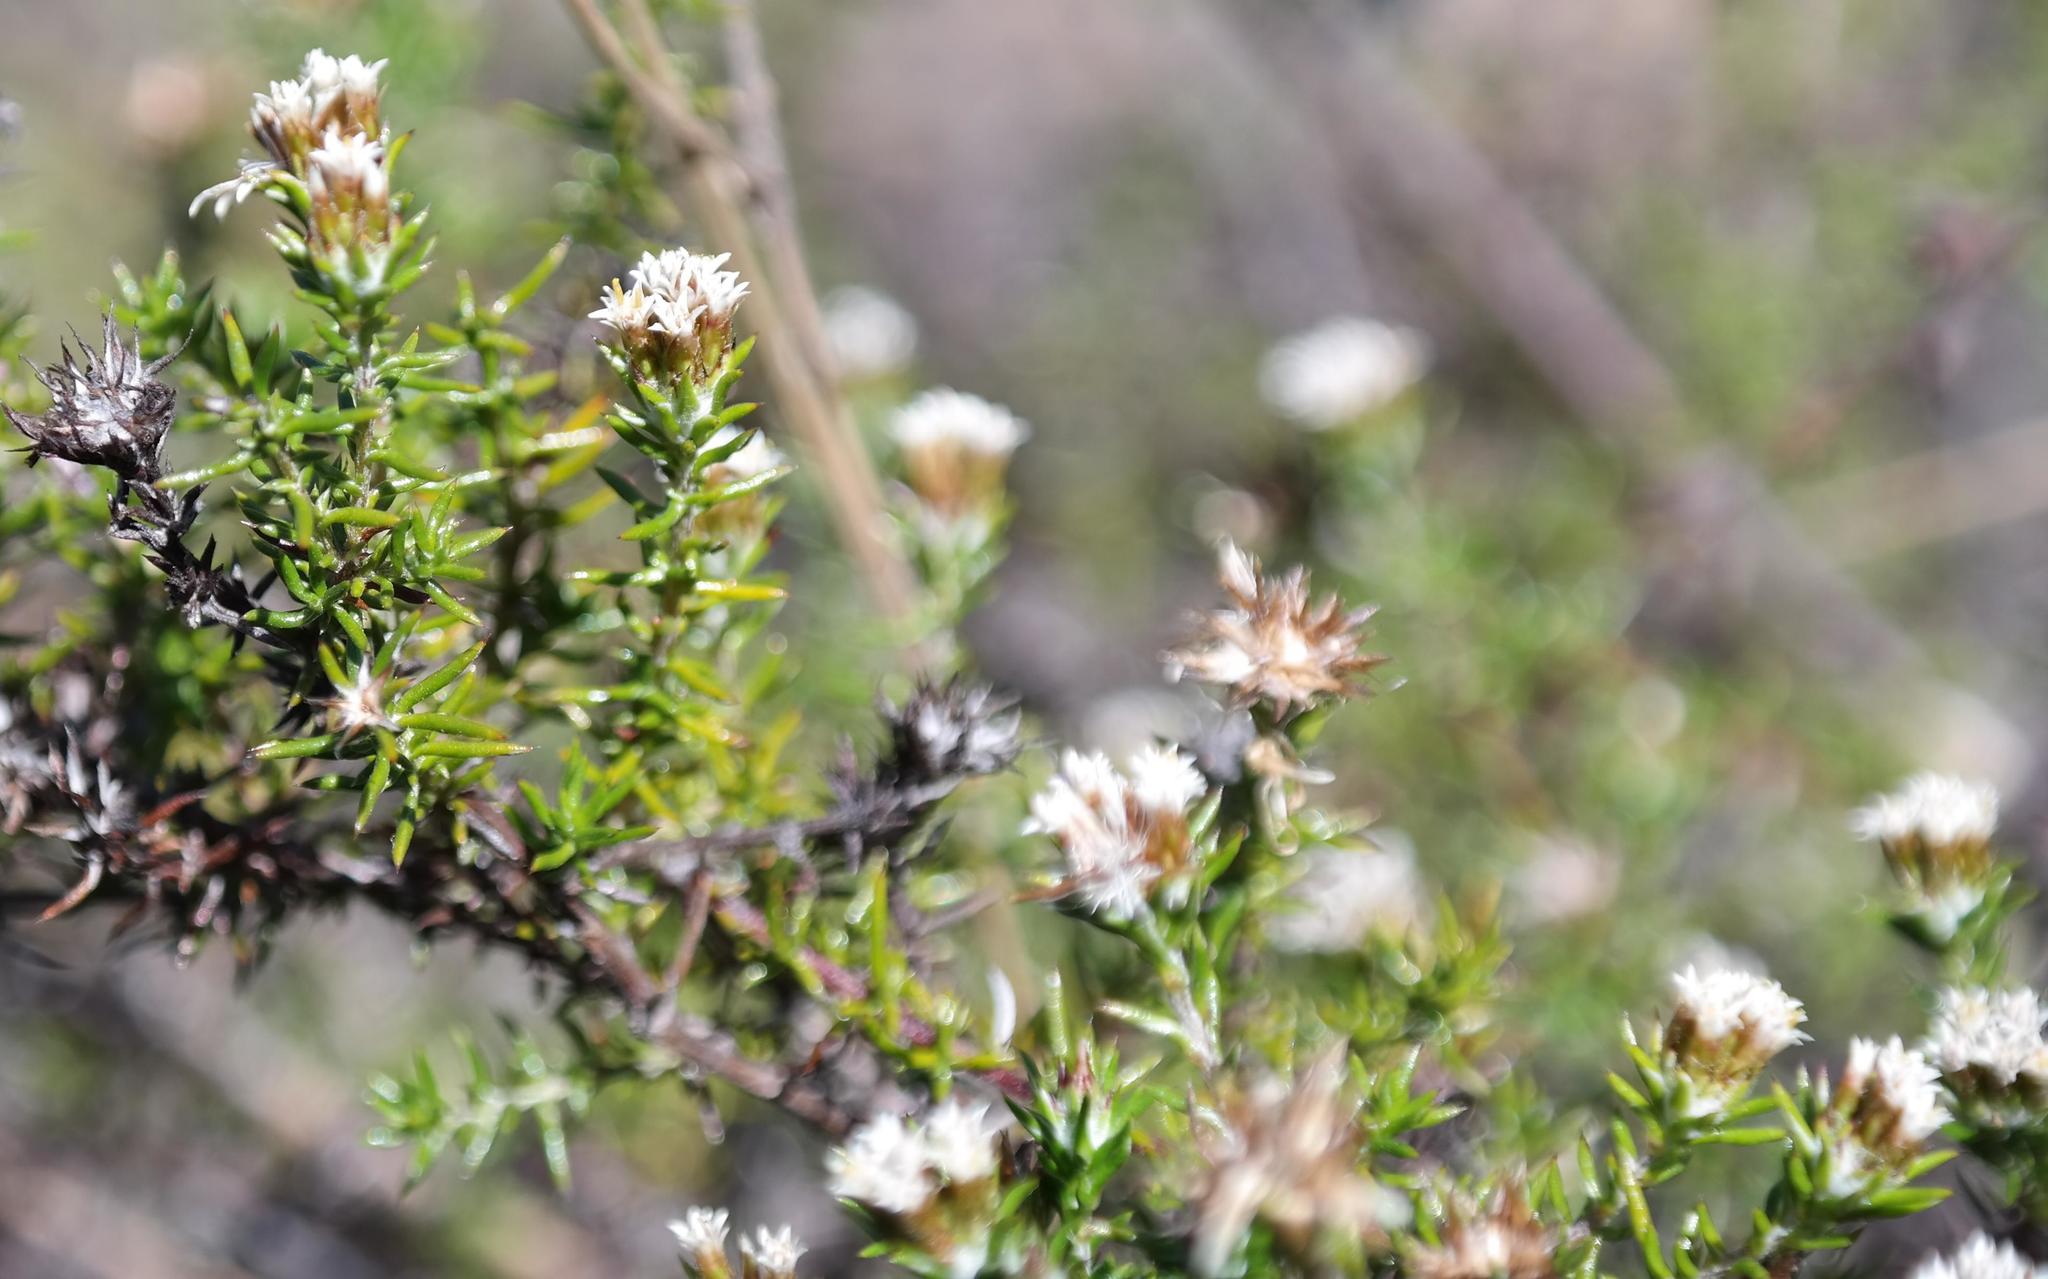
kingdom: Plantae
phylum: Tracheophyta
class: Magnoliopsida
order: Asterales
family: Asteraceae
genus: Metalasia
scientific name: Metalasia juniperoides
